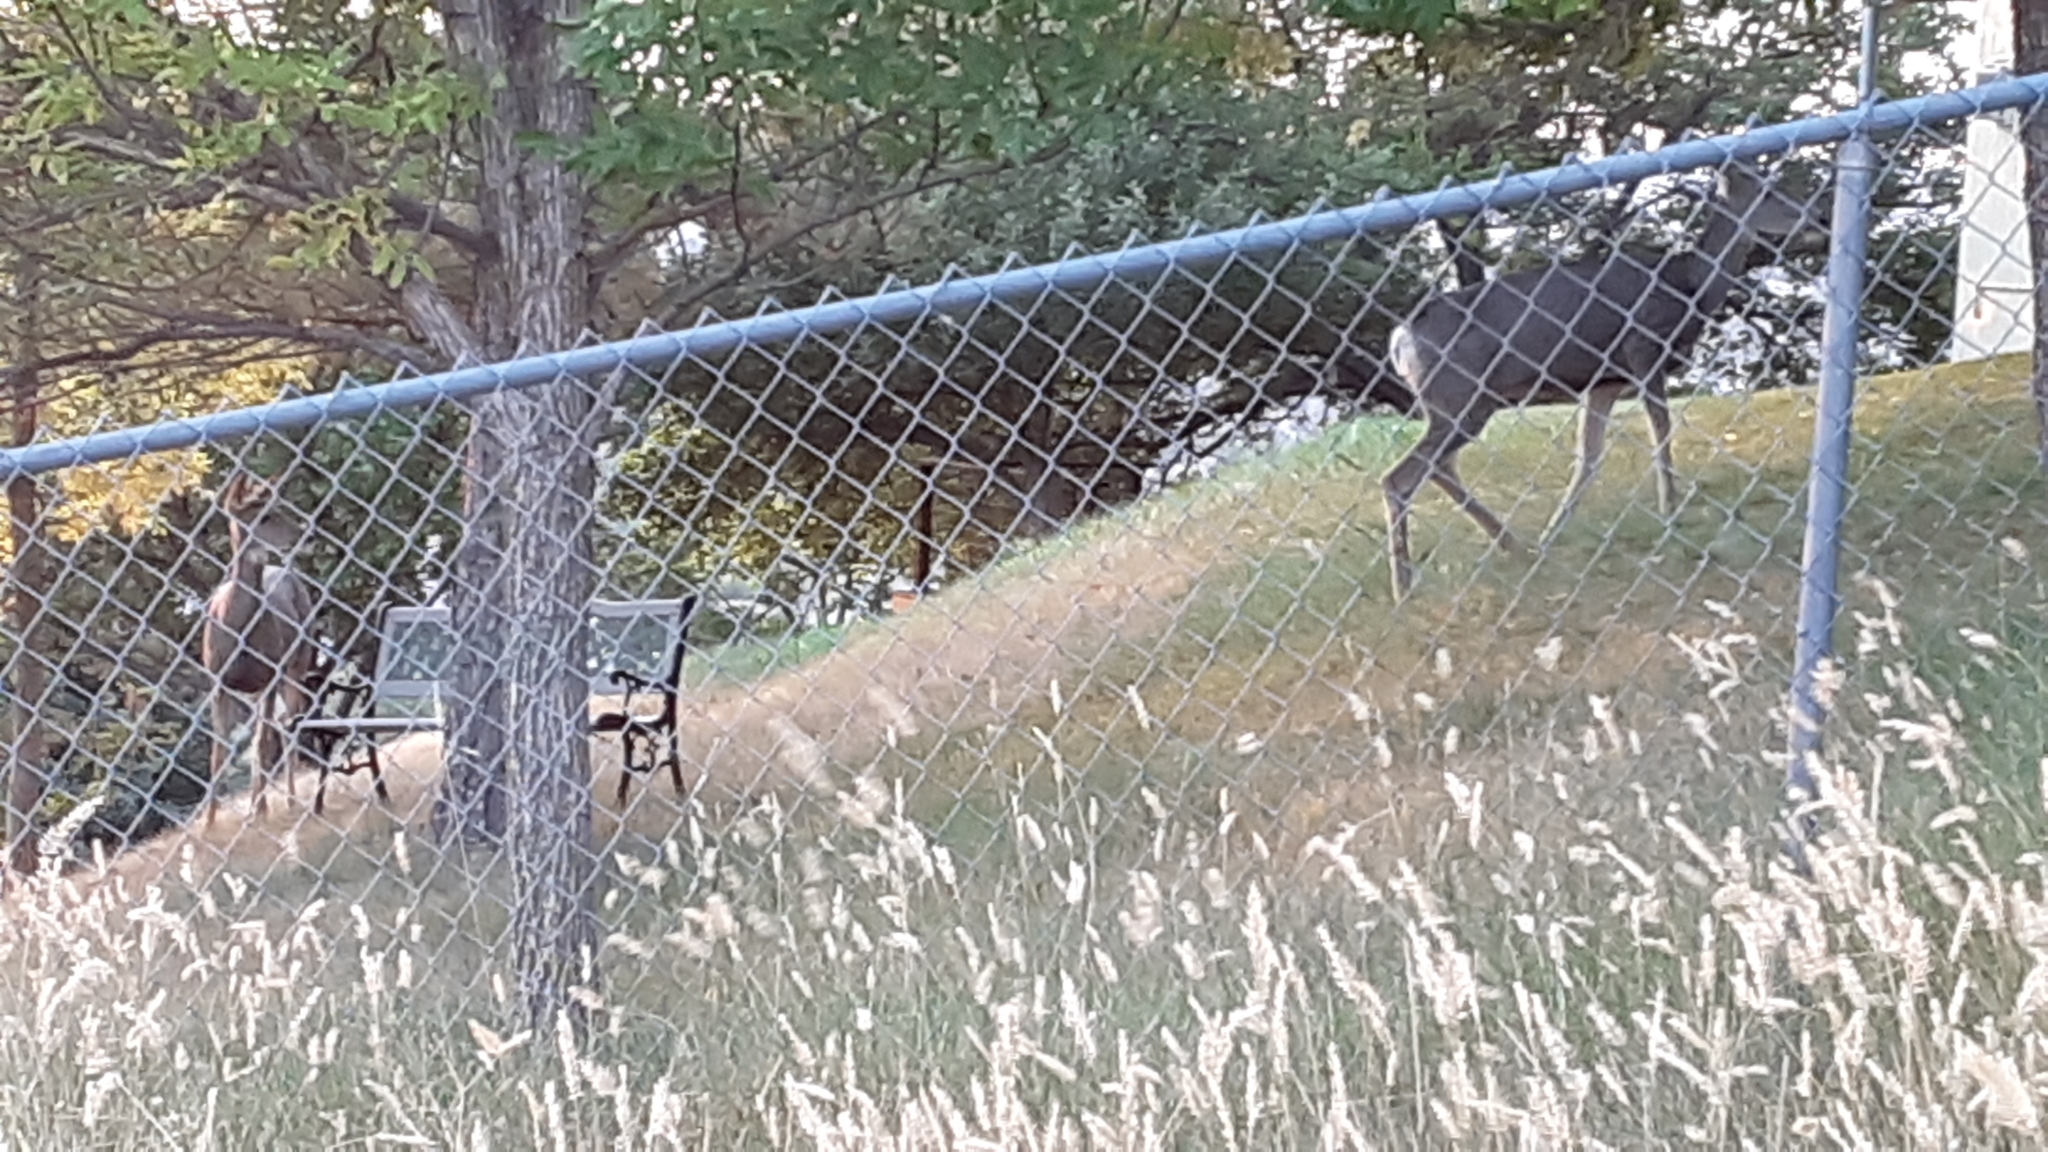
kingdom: Animalia
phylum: Chordata
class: Mammalia
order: Artiodactyla
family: Cervidae
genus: Odocoileus
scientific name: Odocoileus hemionus
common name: Mule deer
